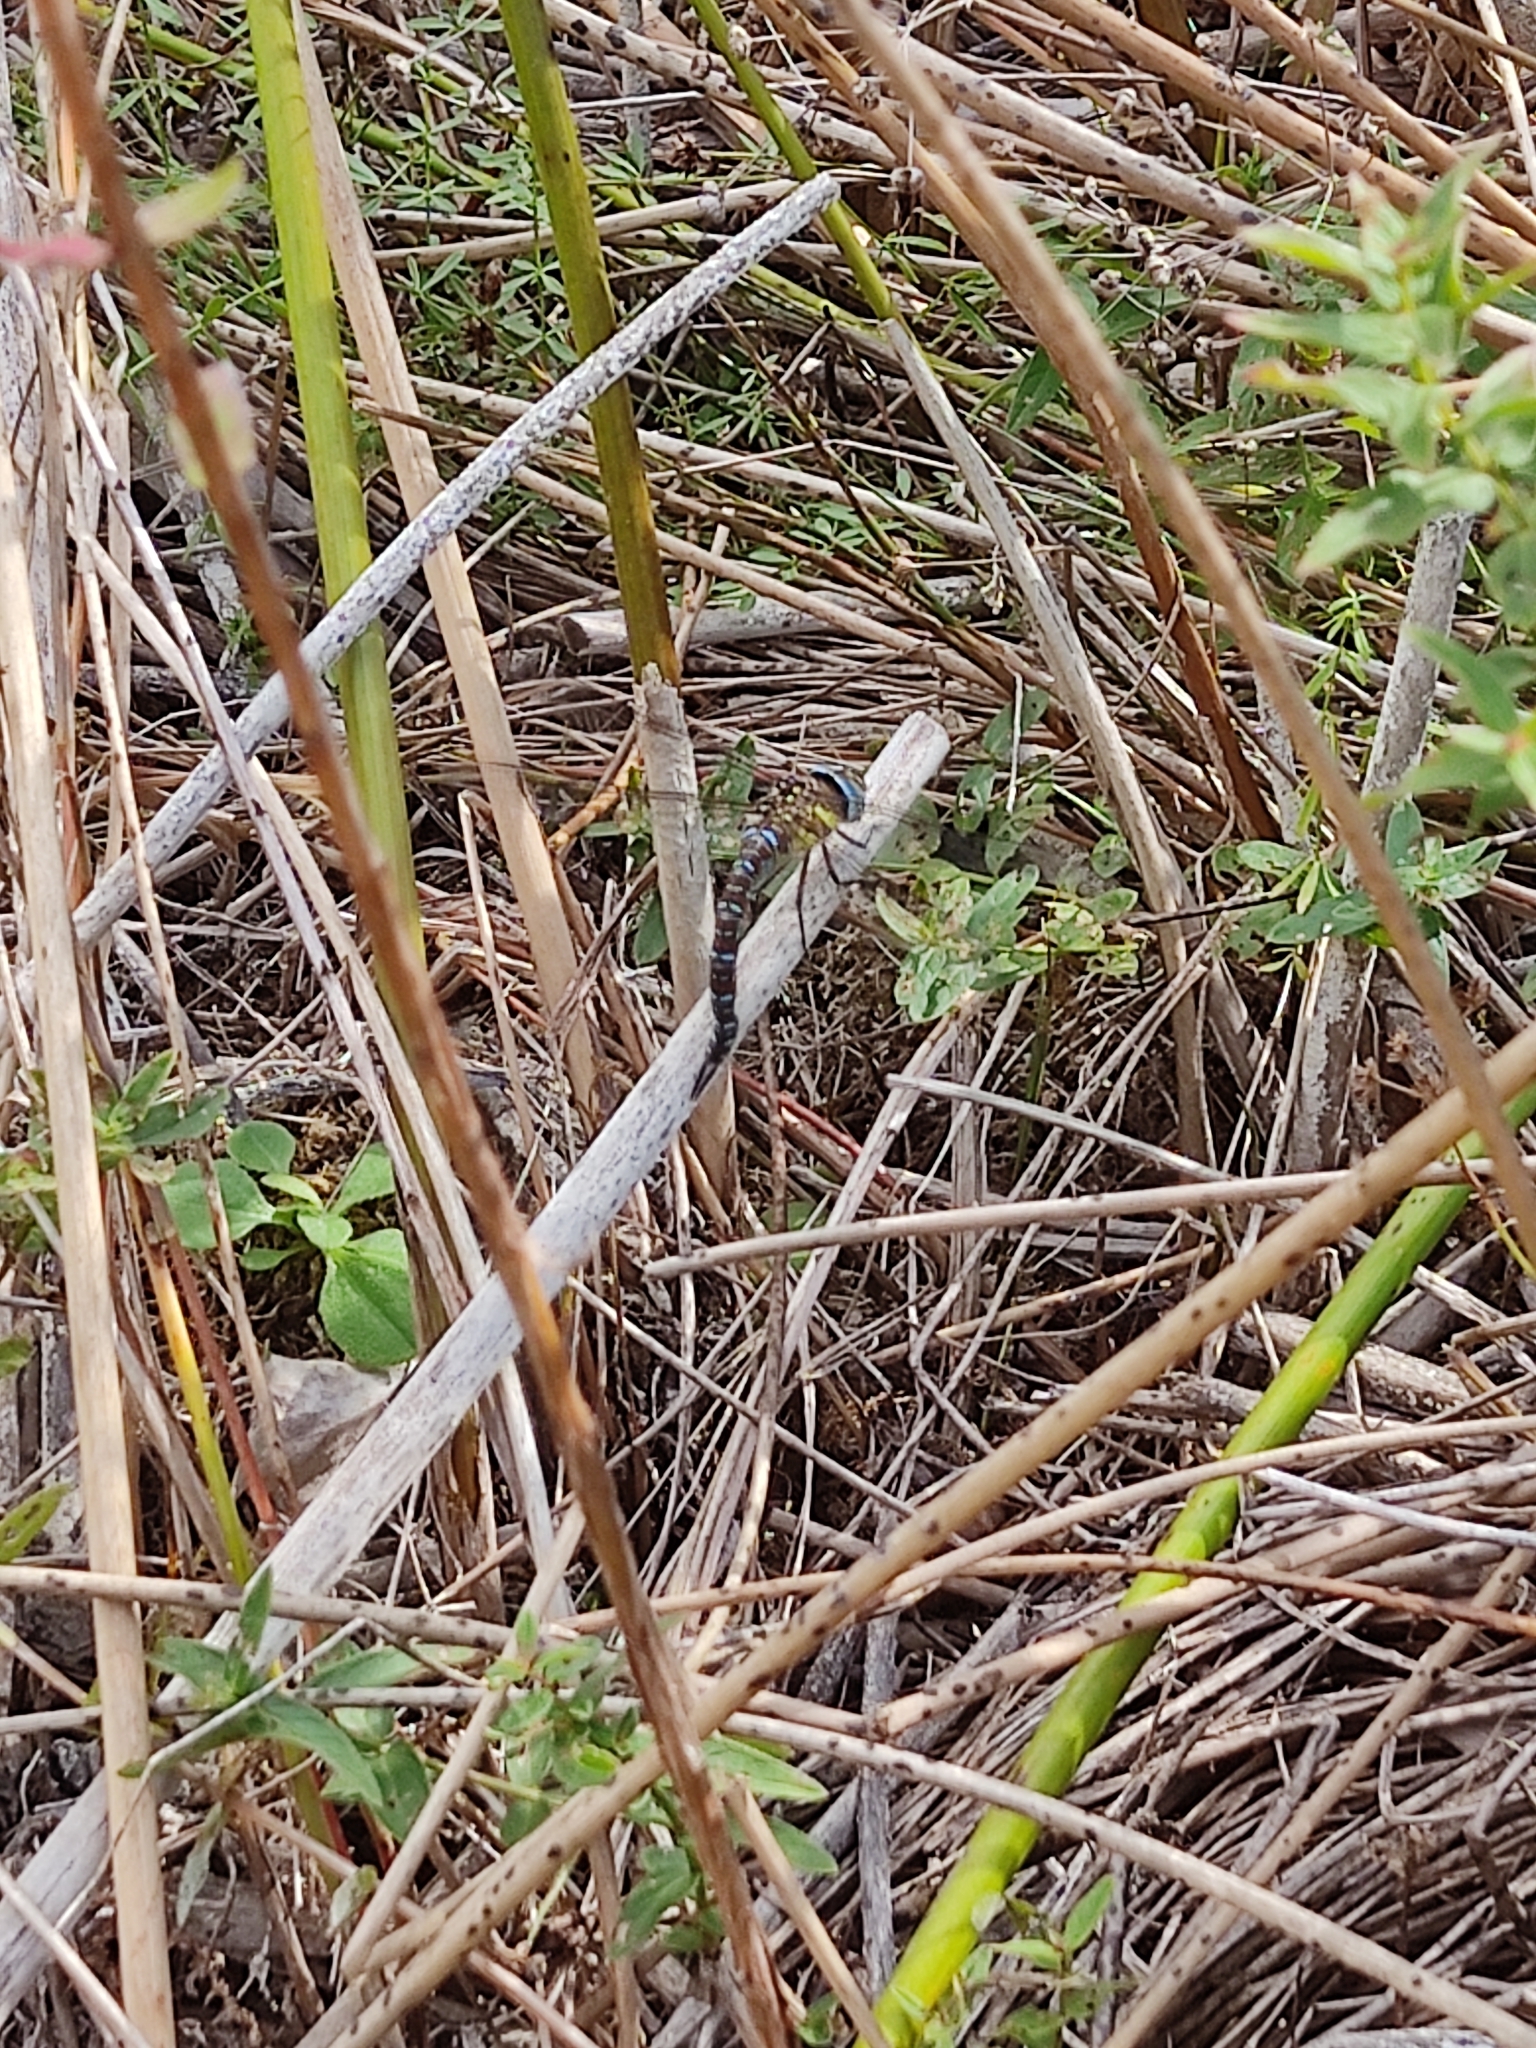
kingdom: Animalia
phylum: Arthropoda
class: Insecta
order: Odonata
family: Aeshnidae
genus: Aeshna
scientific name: Aeshna mixta
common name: Migrant hawker
